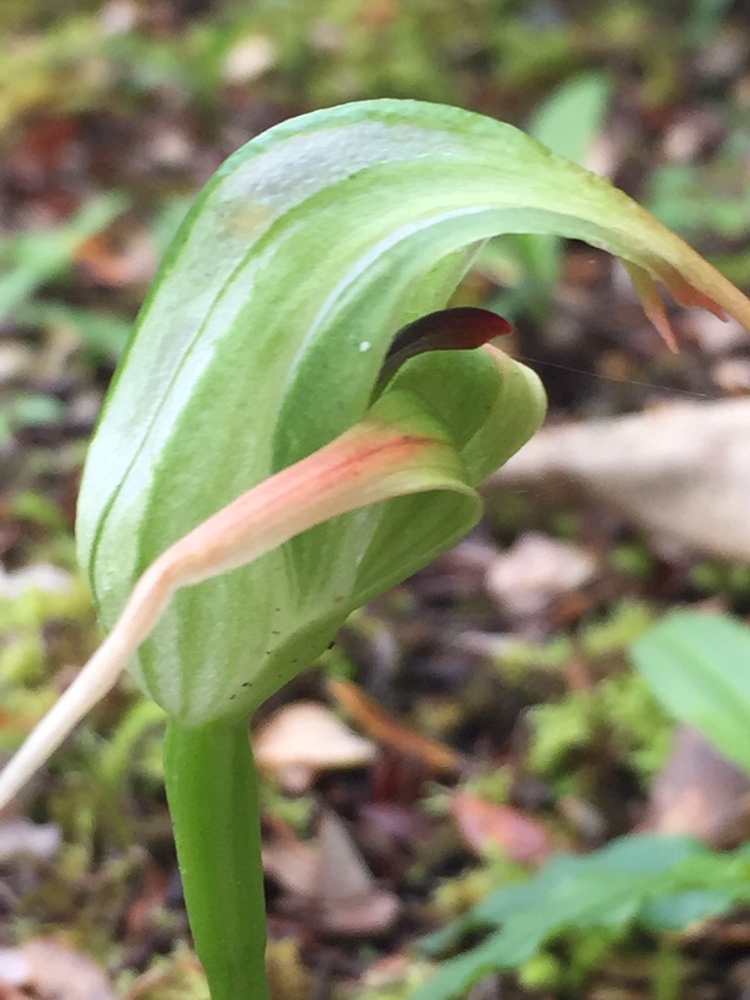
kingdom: Plantae
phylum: Tracheophyta
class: Liliopsida
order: Asparagales
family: Orchidaceae
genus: Pterostylis
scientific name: Pterostylis australis
